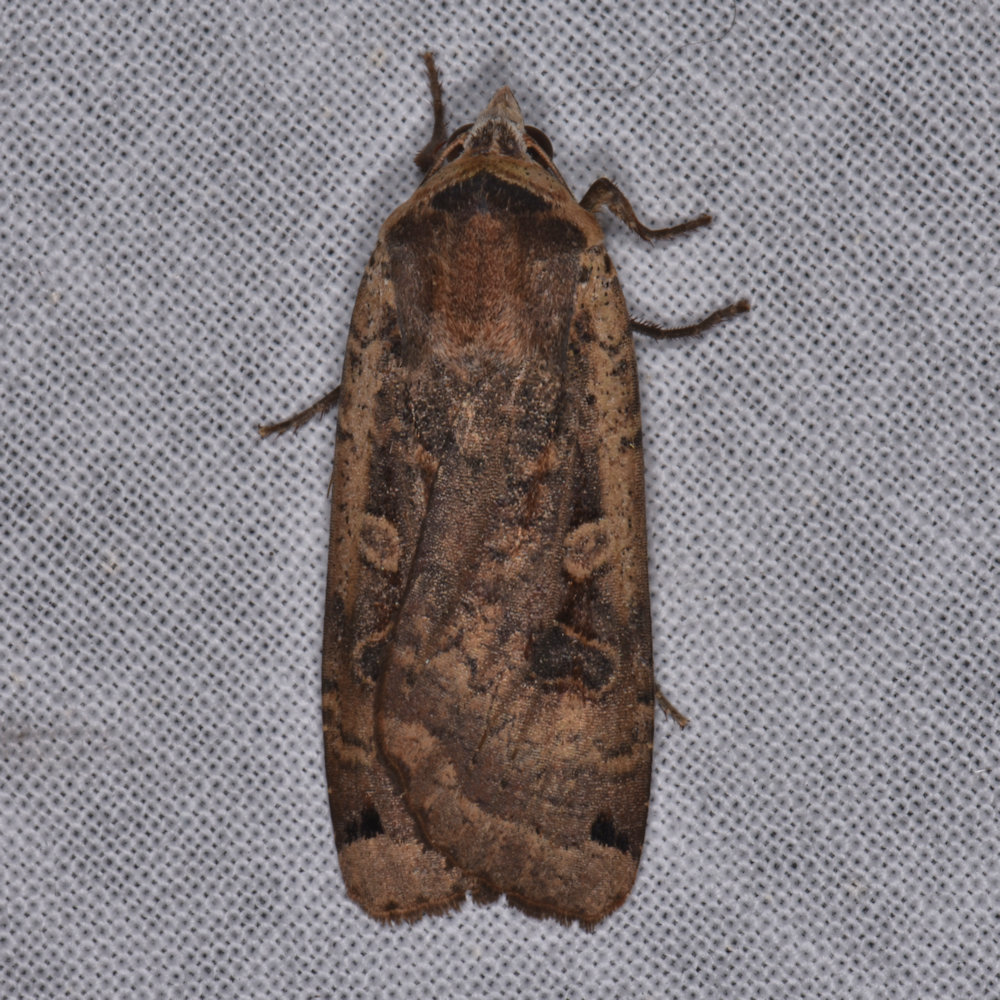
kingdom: Animalia
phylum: Arthropoda
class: Insecta
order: Lepidoptera
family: Noctuidae
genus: Noctua
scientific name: Noctua pronuba
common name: Large yellow underwing
